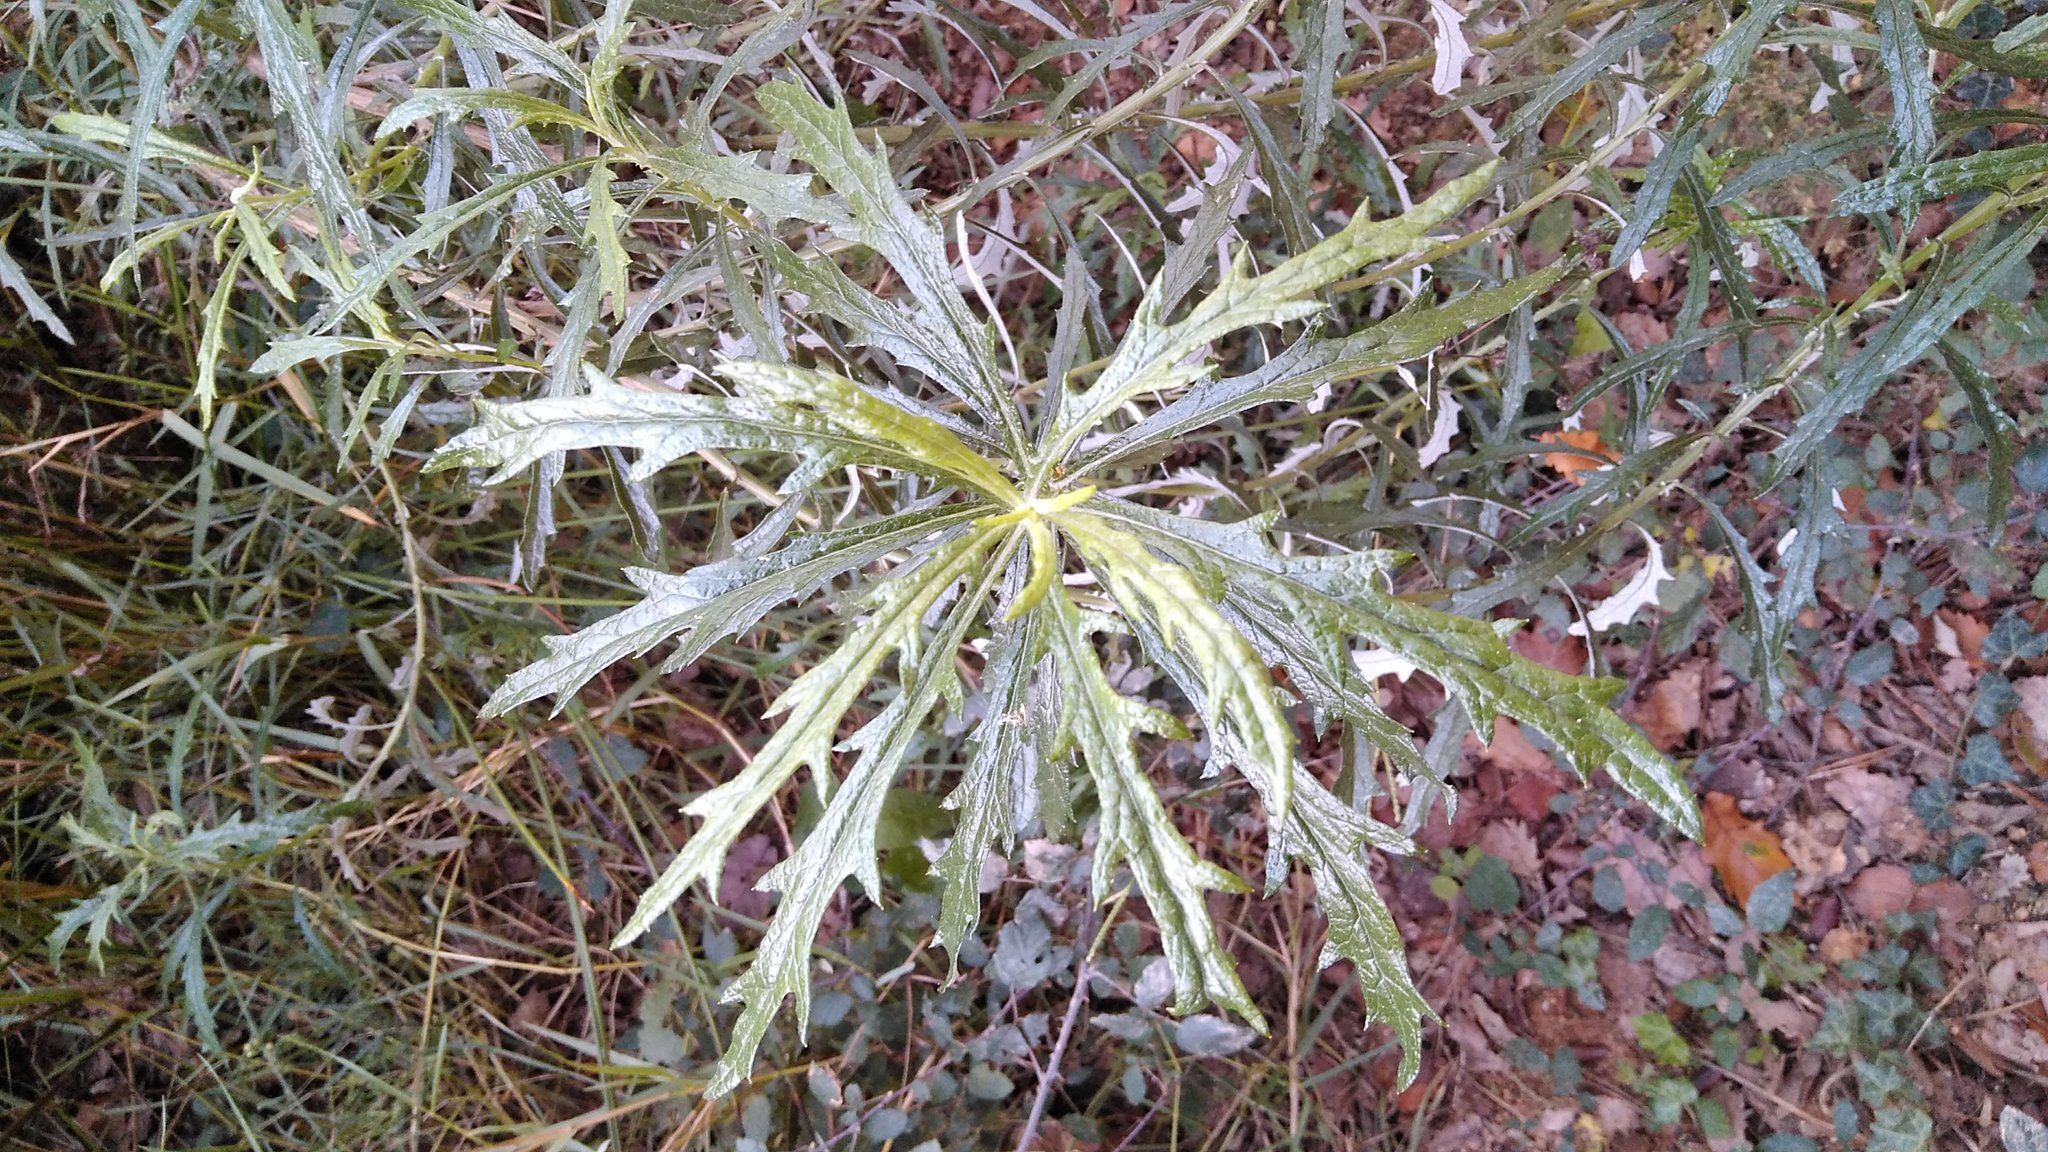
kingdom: Plantae
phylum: Tracheophyta
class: Magnoliopsida
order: Asterales
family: Asteraceae
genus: Senecio
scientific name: Senecio pterophorus
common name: Shoddy ragwort
